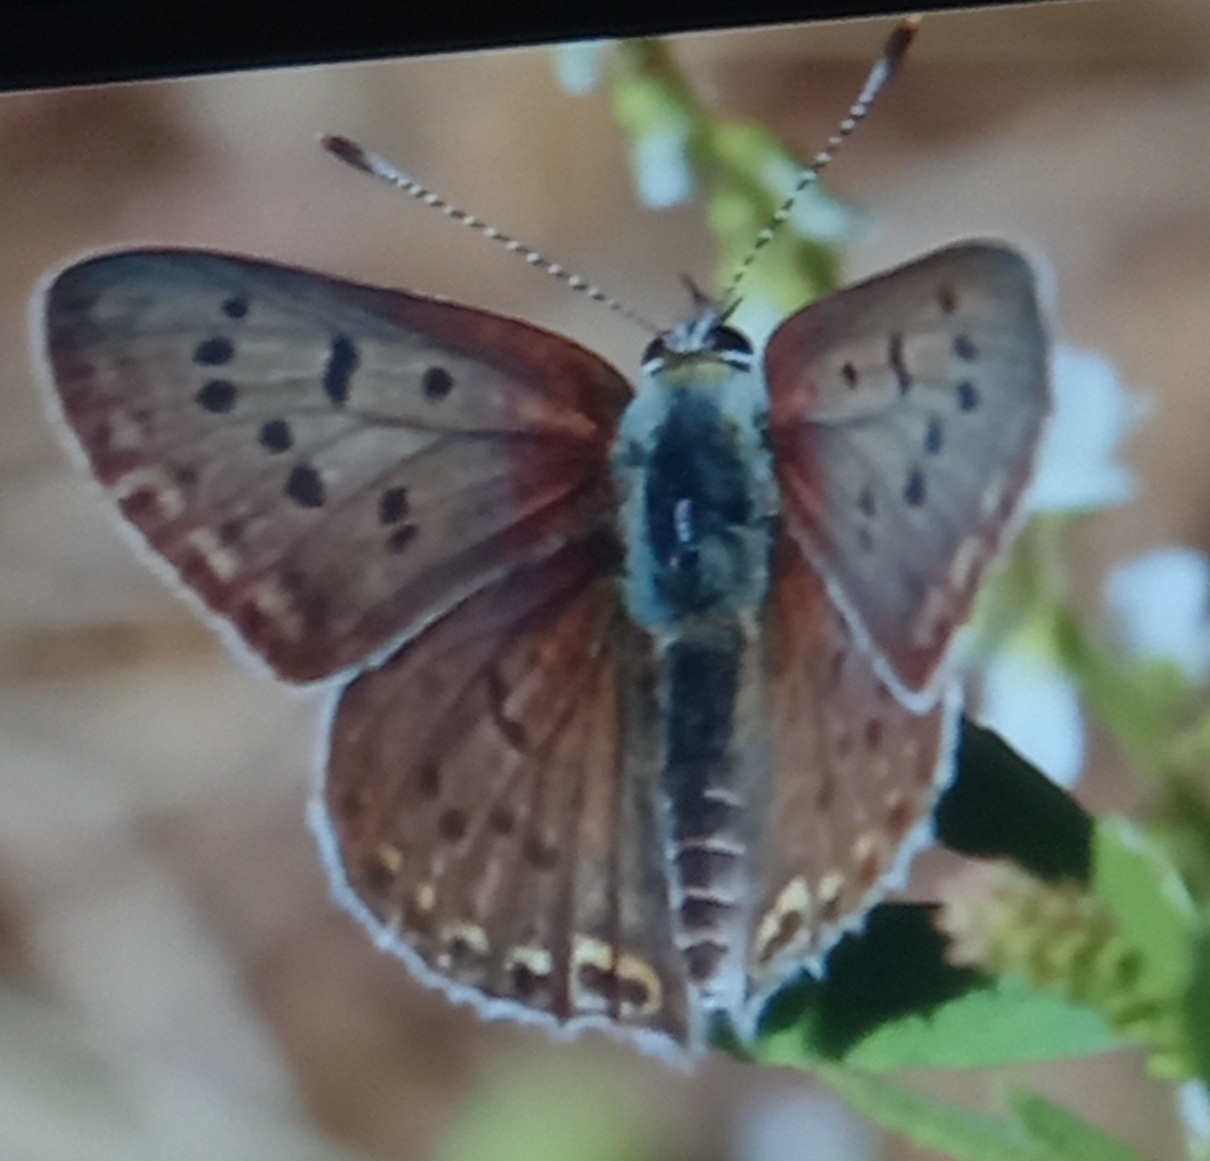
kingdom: Animalia
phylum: Arthropoda
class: Insecta
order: Lepidoptera
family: Lycaenidae
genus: Loweia
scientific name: Loweia tityrus
